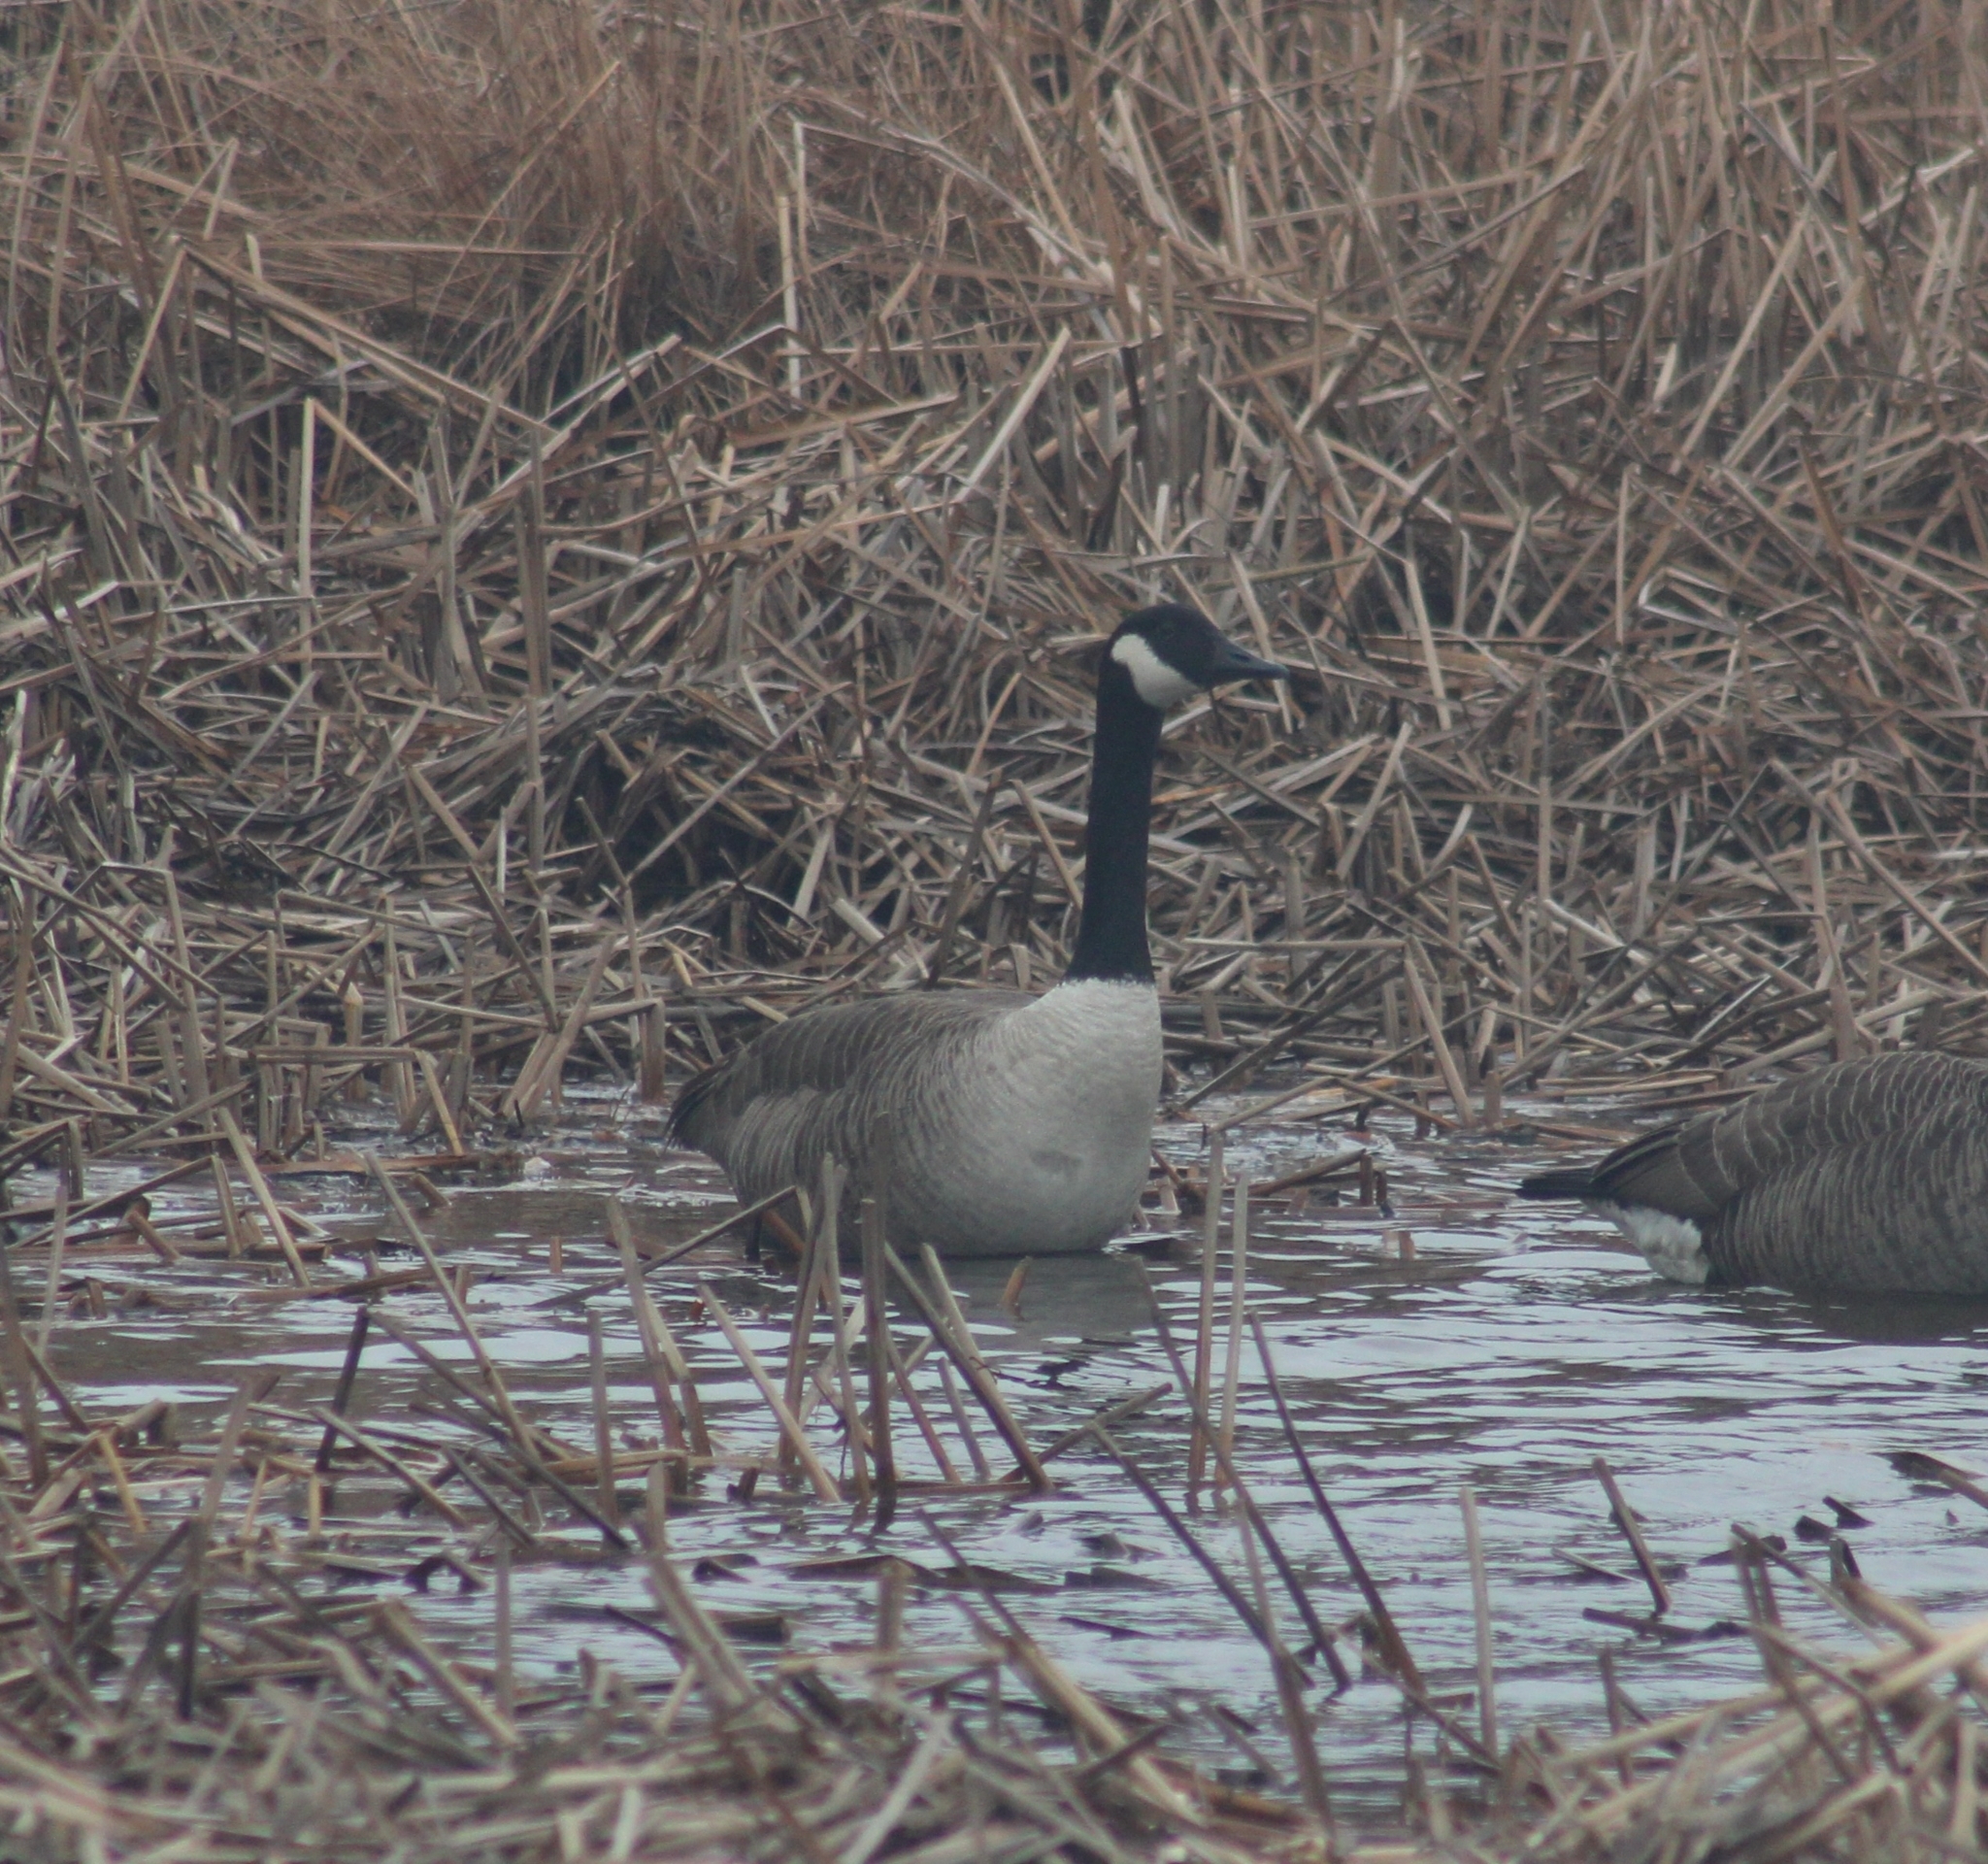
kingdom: Animalia
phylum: Chordata
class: Aves
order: Anseriformes
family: Anatidae
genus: Branta
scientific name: Branta canadensis
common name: Canada goose
